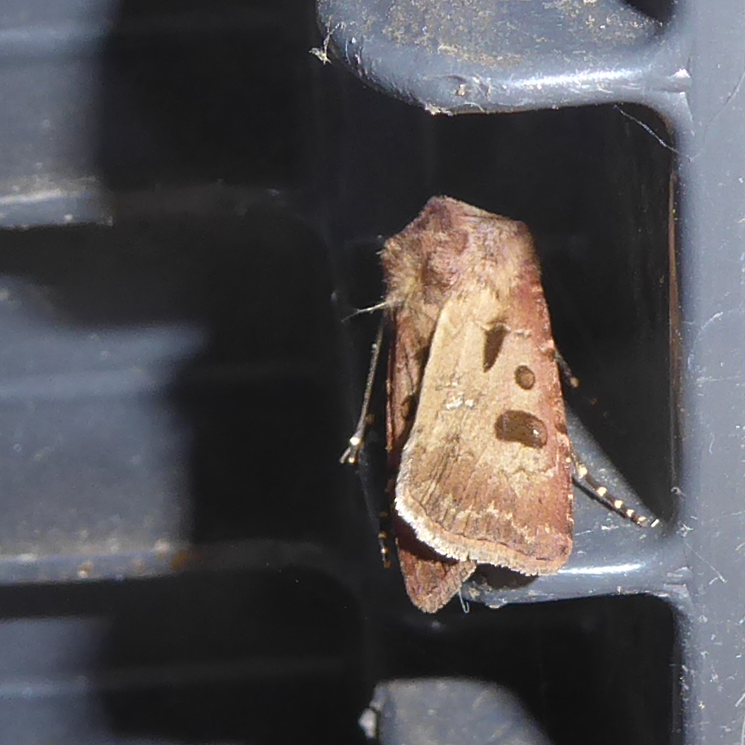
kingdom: Animalia
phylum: Arthropoda
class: Insecta
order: Lepidoptera
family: Noctuidae
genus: Agrotis
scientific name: Agrotis exclamationis
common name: Heart and dart
